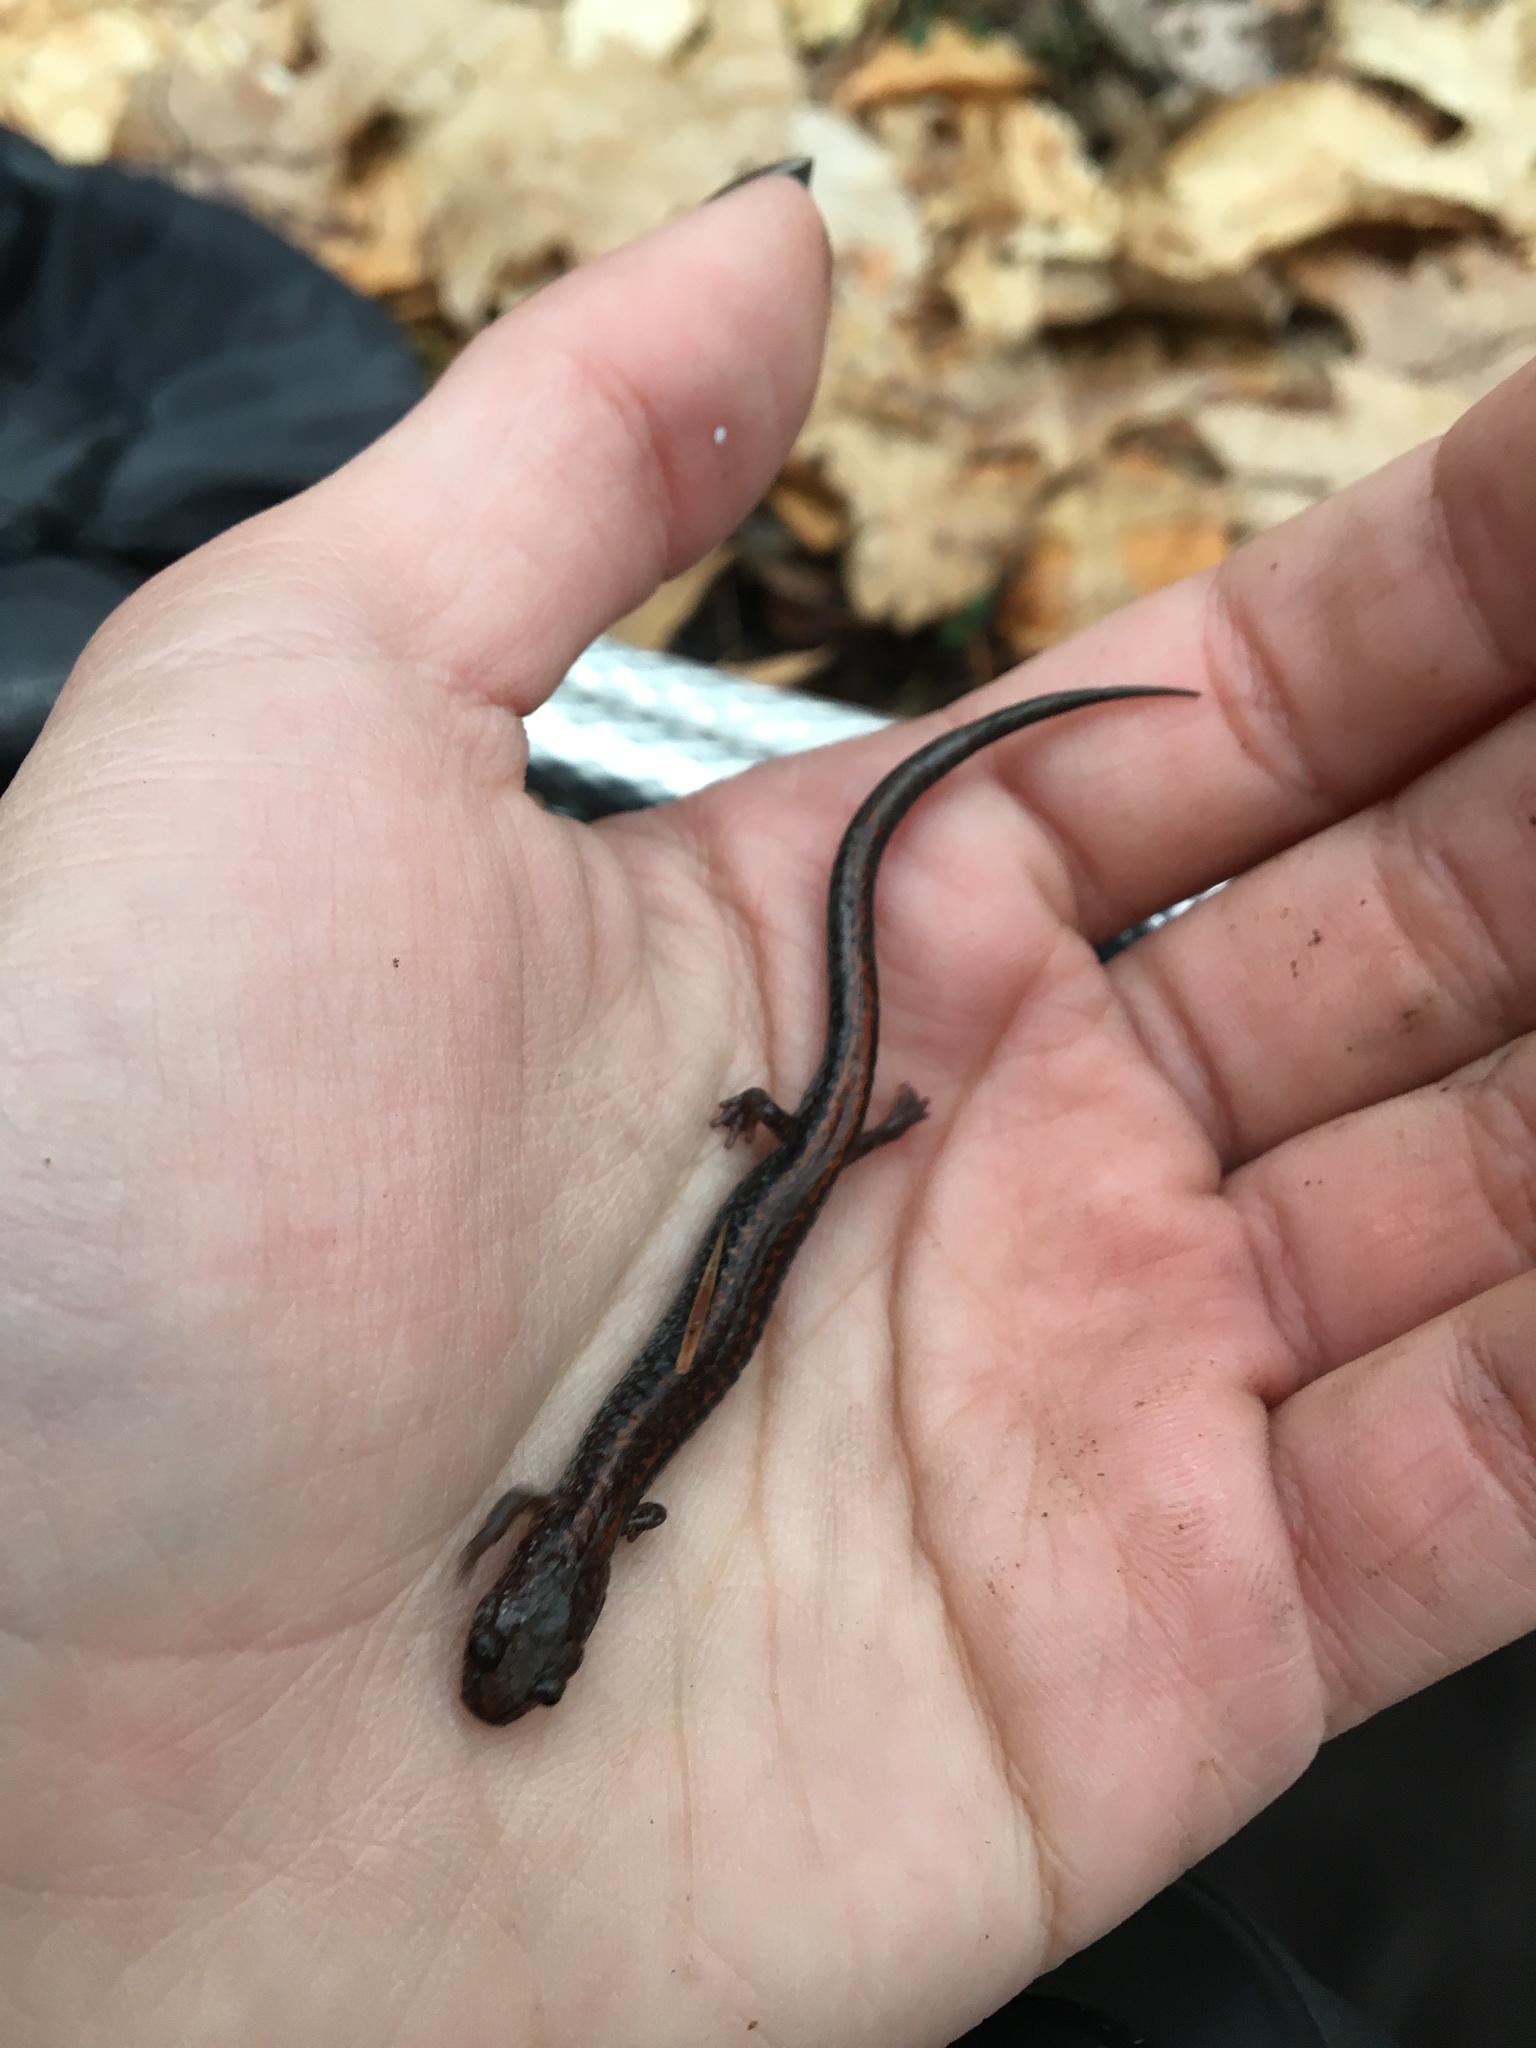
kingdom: Animalia
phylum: Chordata
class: Amphibia
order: Caudata
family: Plethodontidae
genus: Plethodon
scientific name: Plethodon cinereus
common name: Redback salamander
